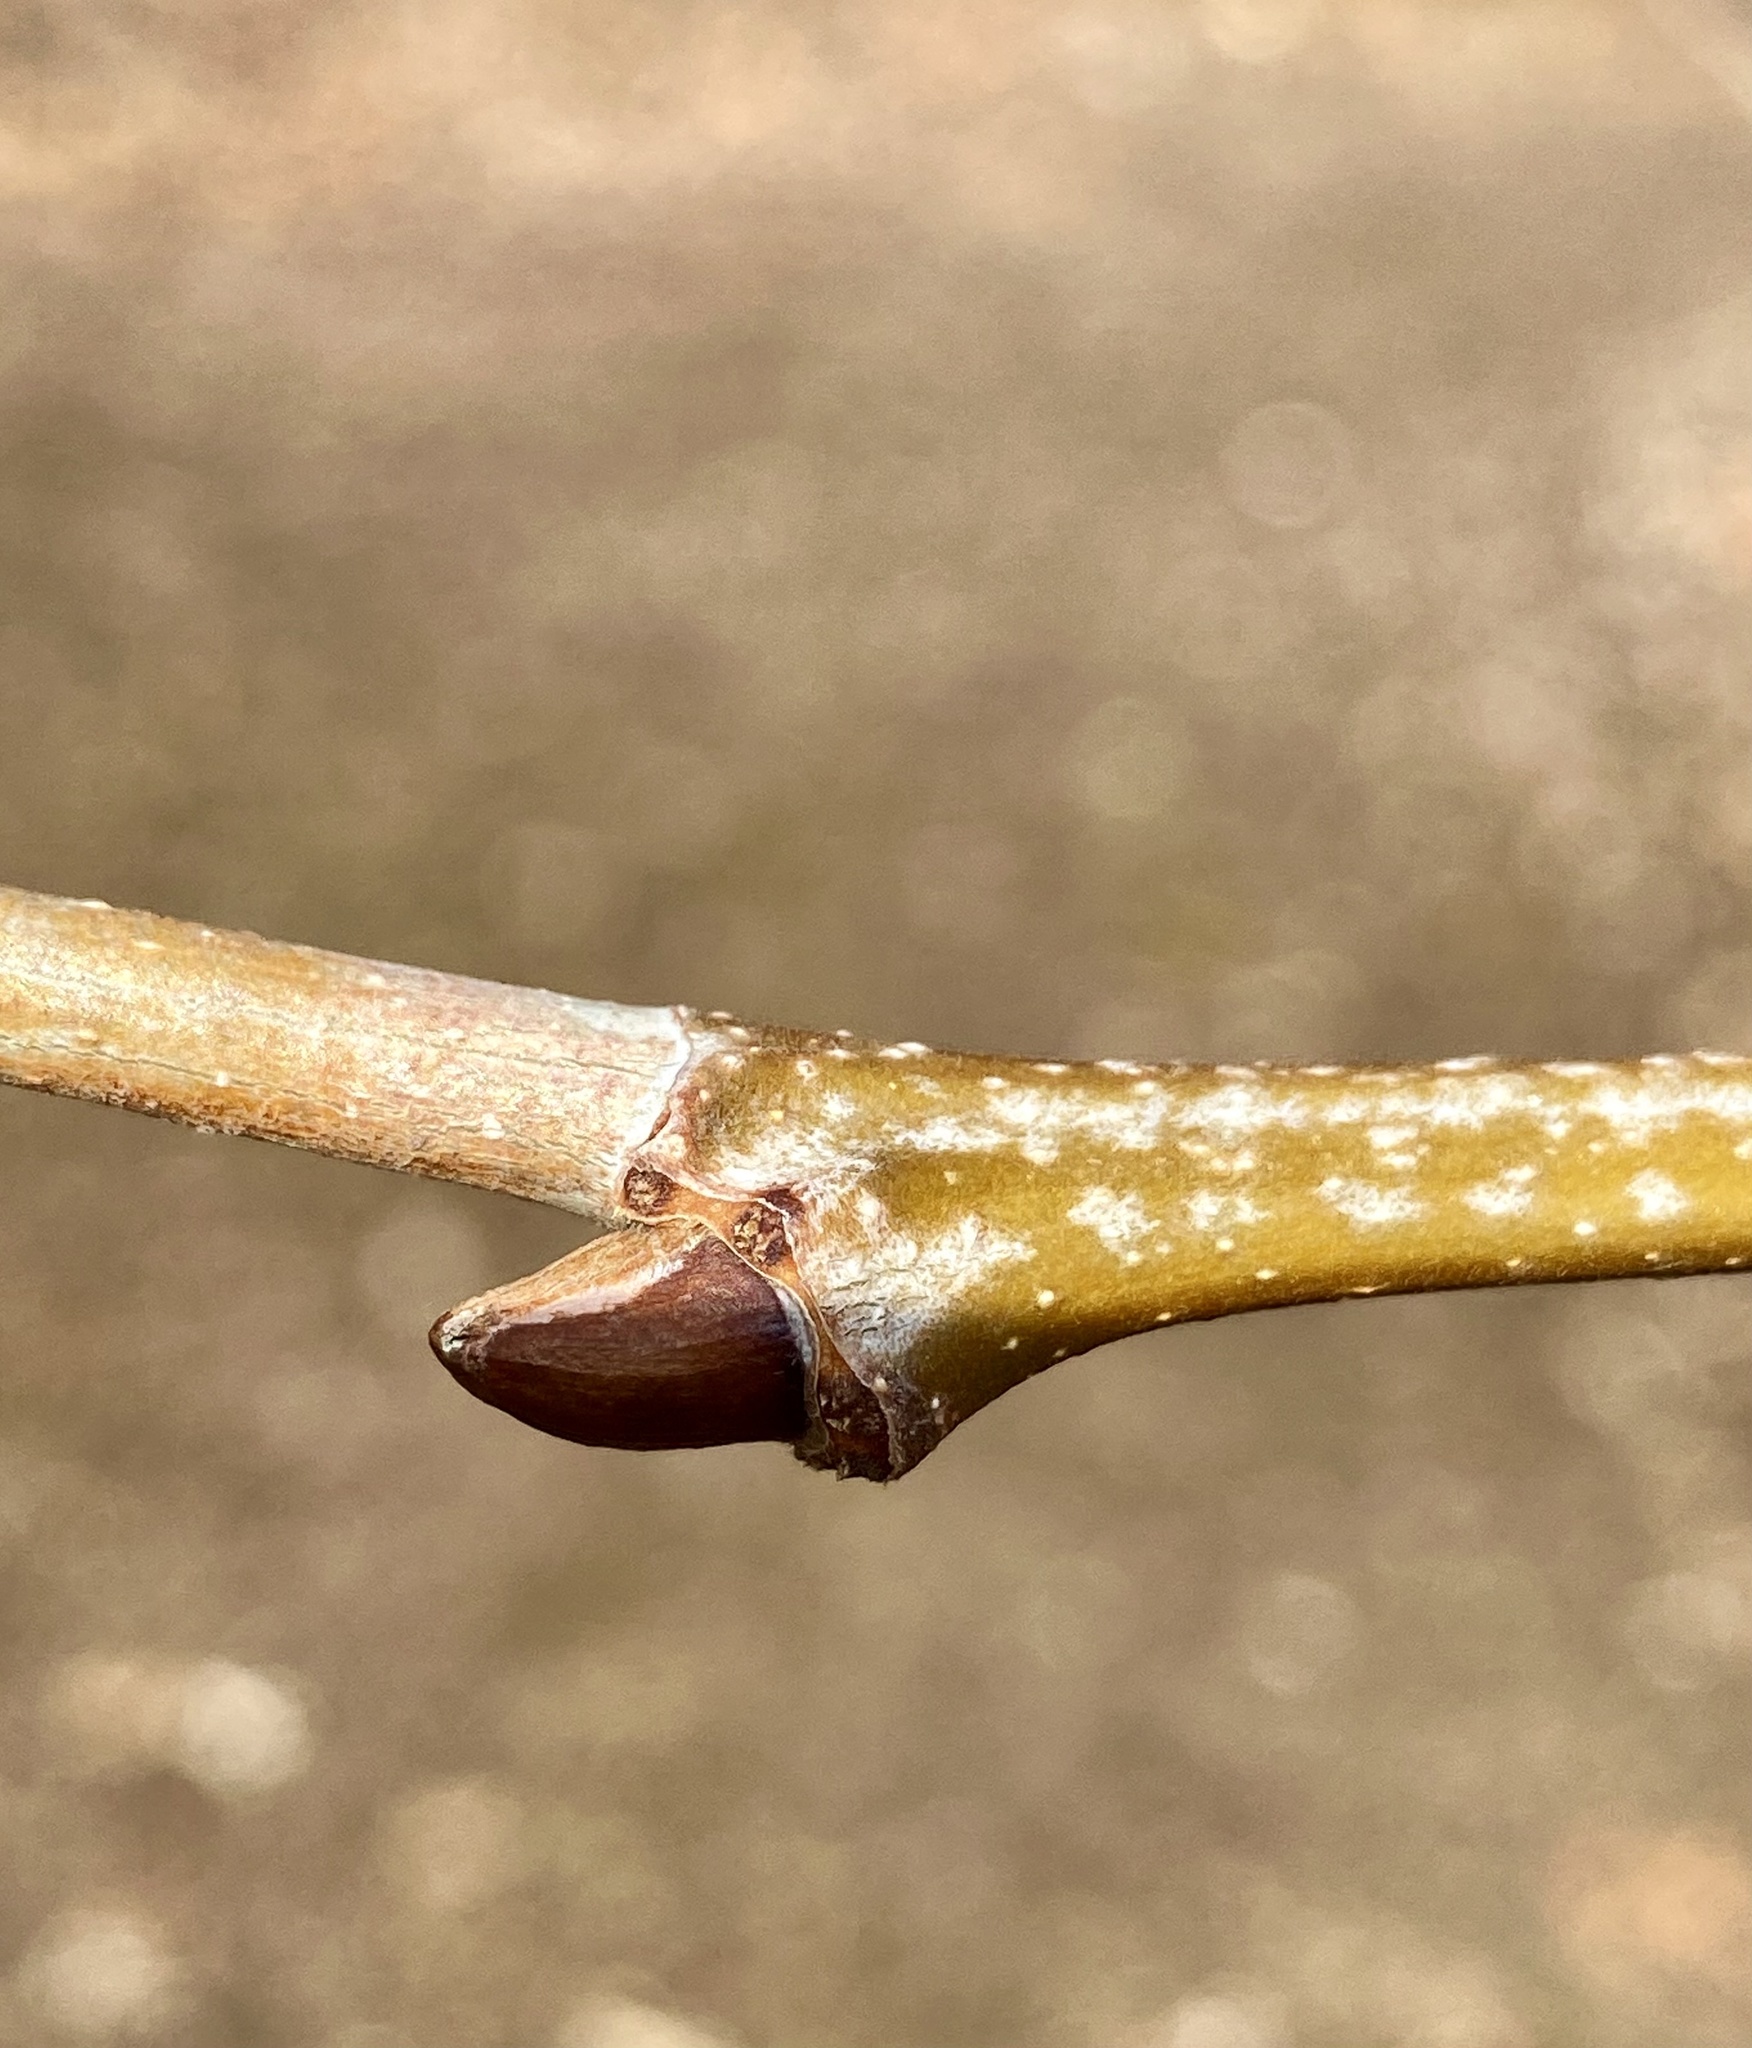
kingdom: Plantae
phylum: Tracheophyta
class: Magnoliopsida
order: Proteales
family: Platanaceae
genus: Platanus
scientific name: Platanus occidentalis
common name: American sycamore
